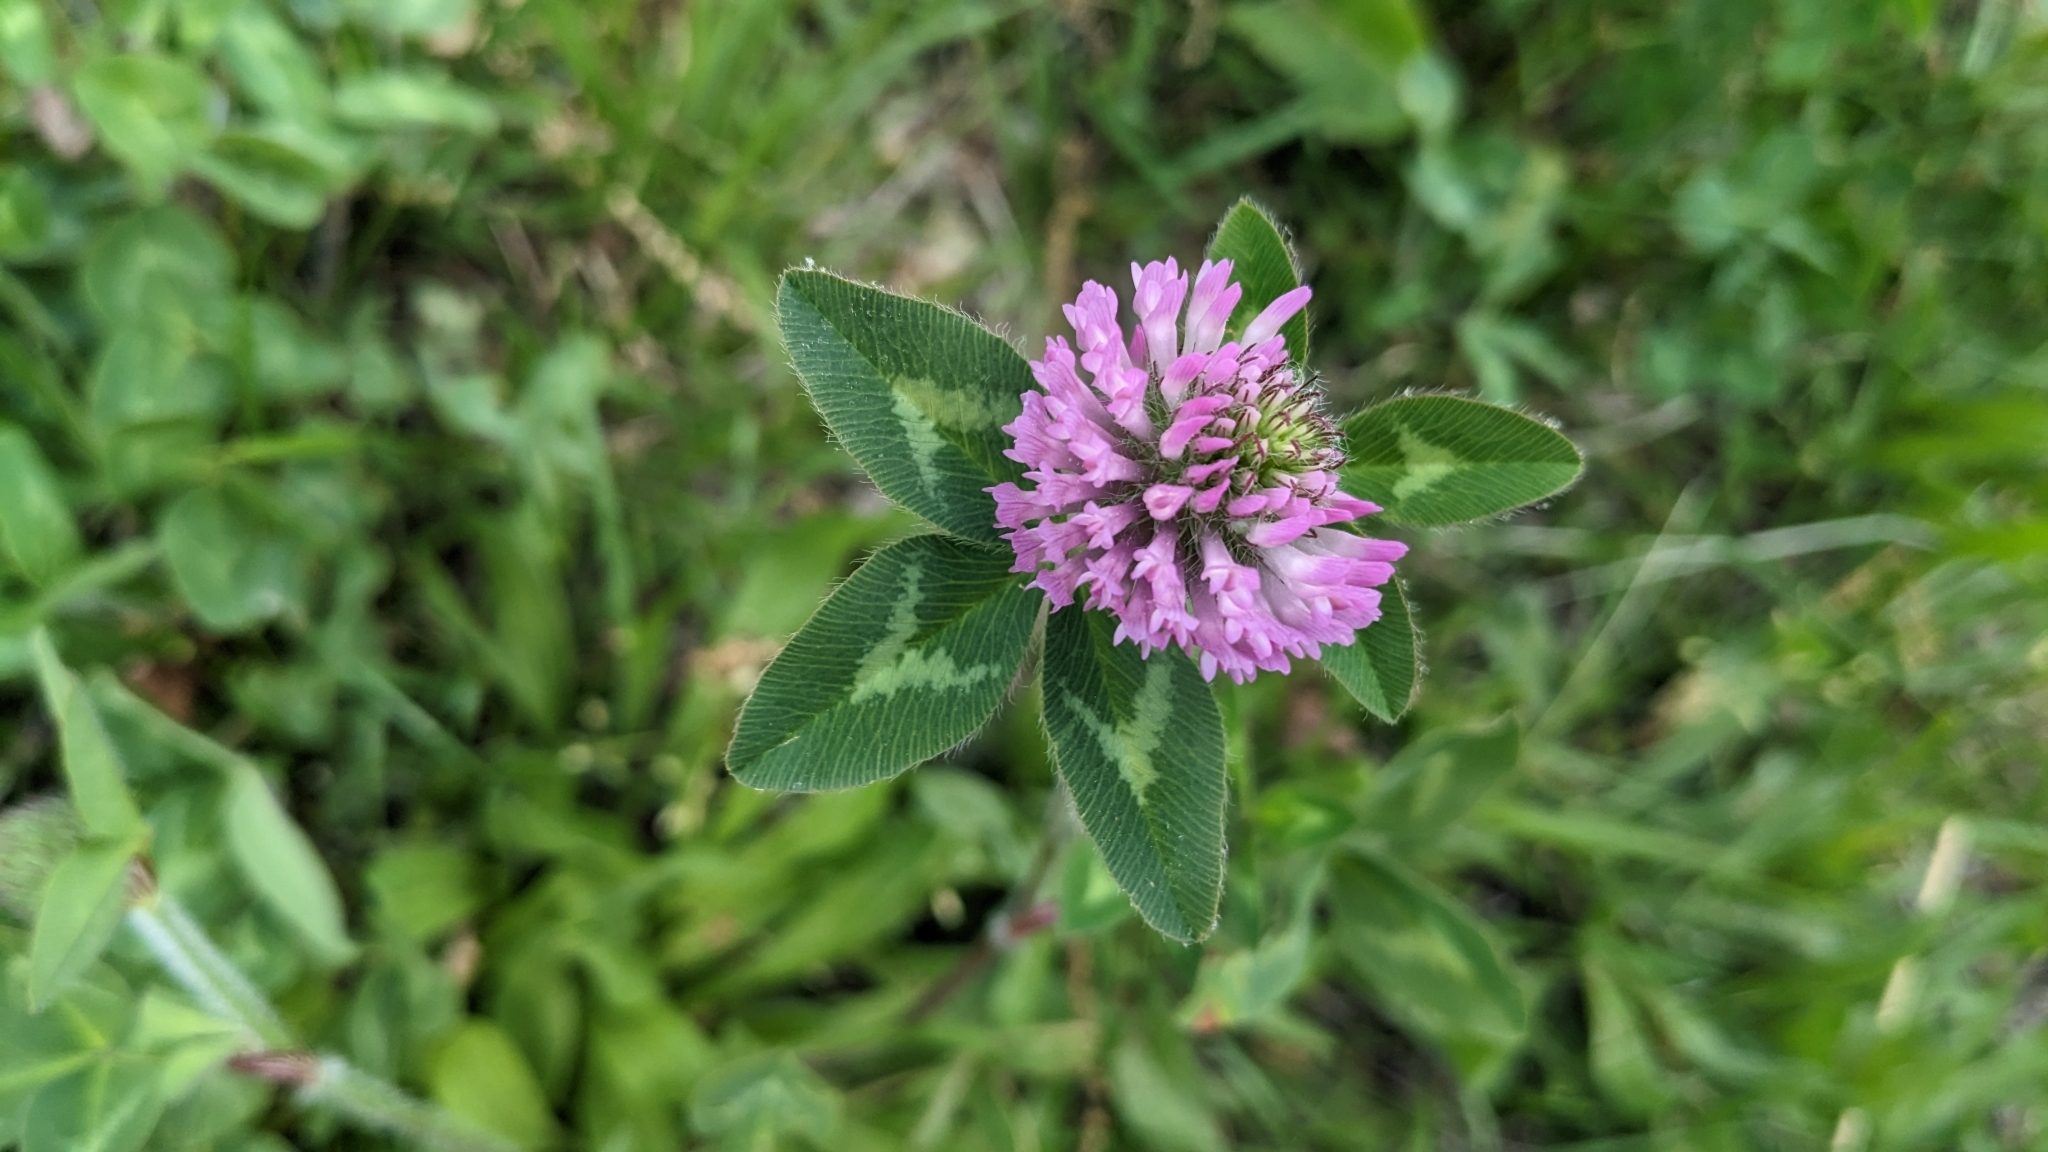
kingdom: Plantae
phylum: Tracheophyta
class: Magnoliopsida
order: Fabales
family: Fabaceae
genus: Trifolium
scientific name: Trifolium pratense
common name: Red clover
